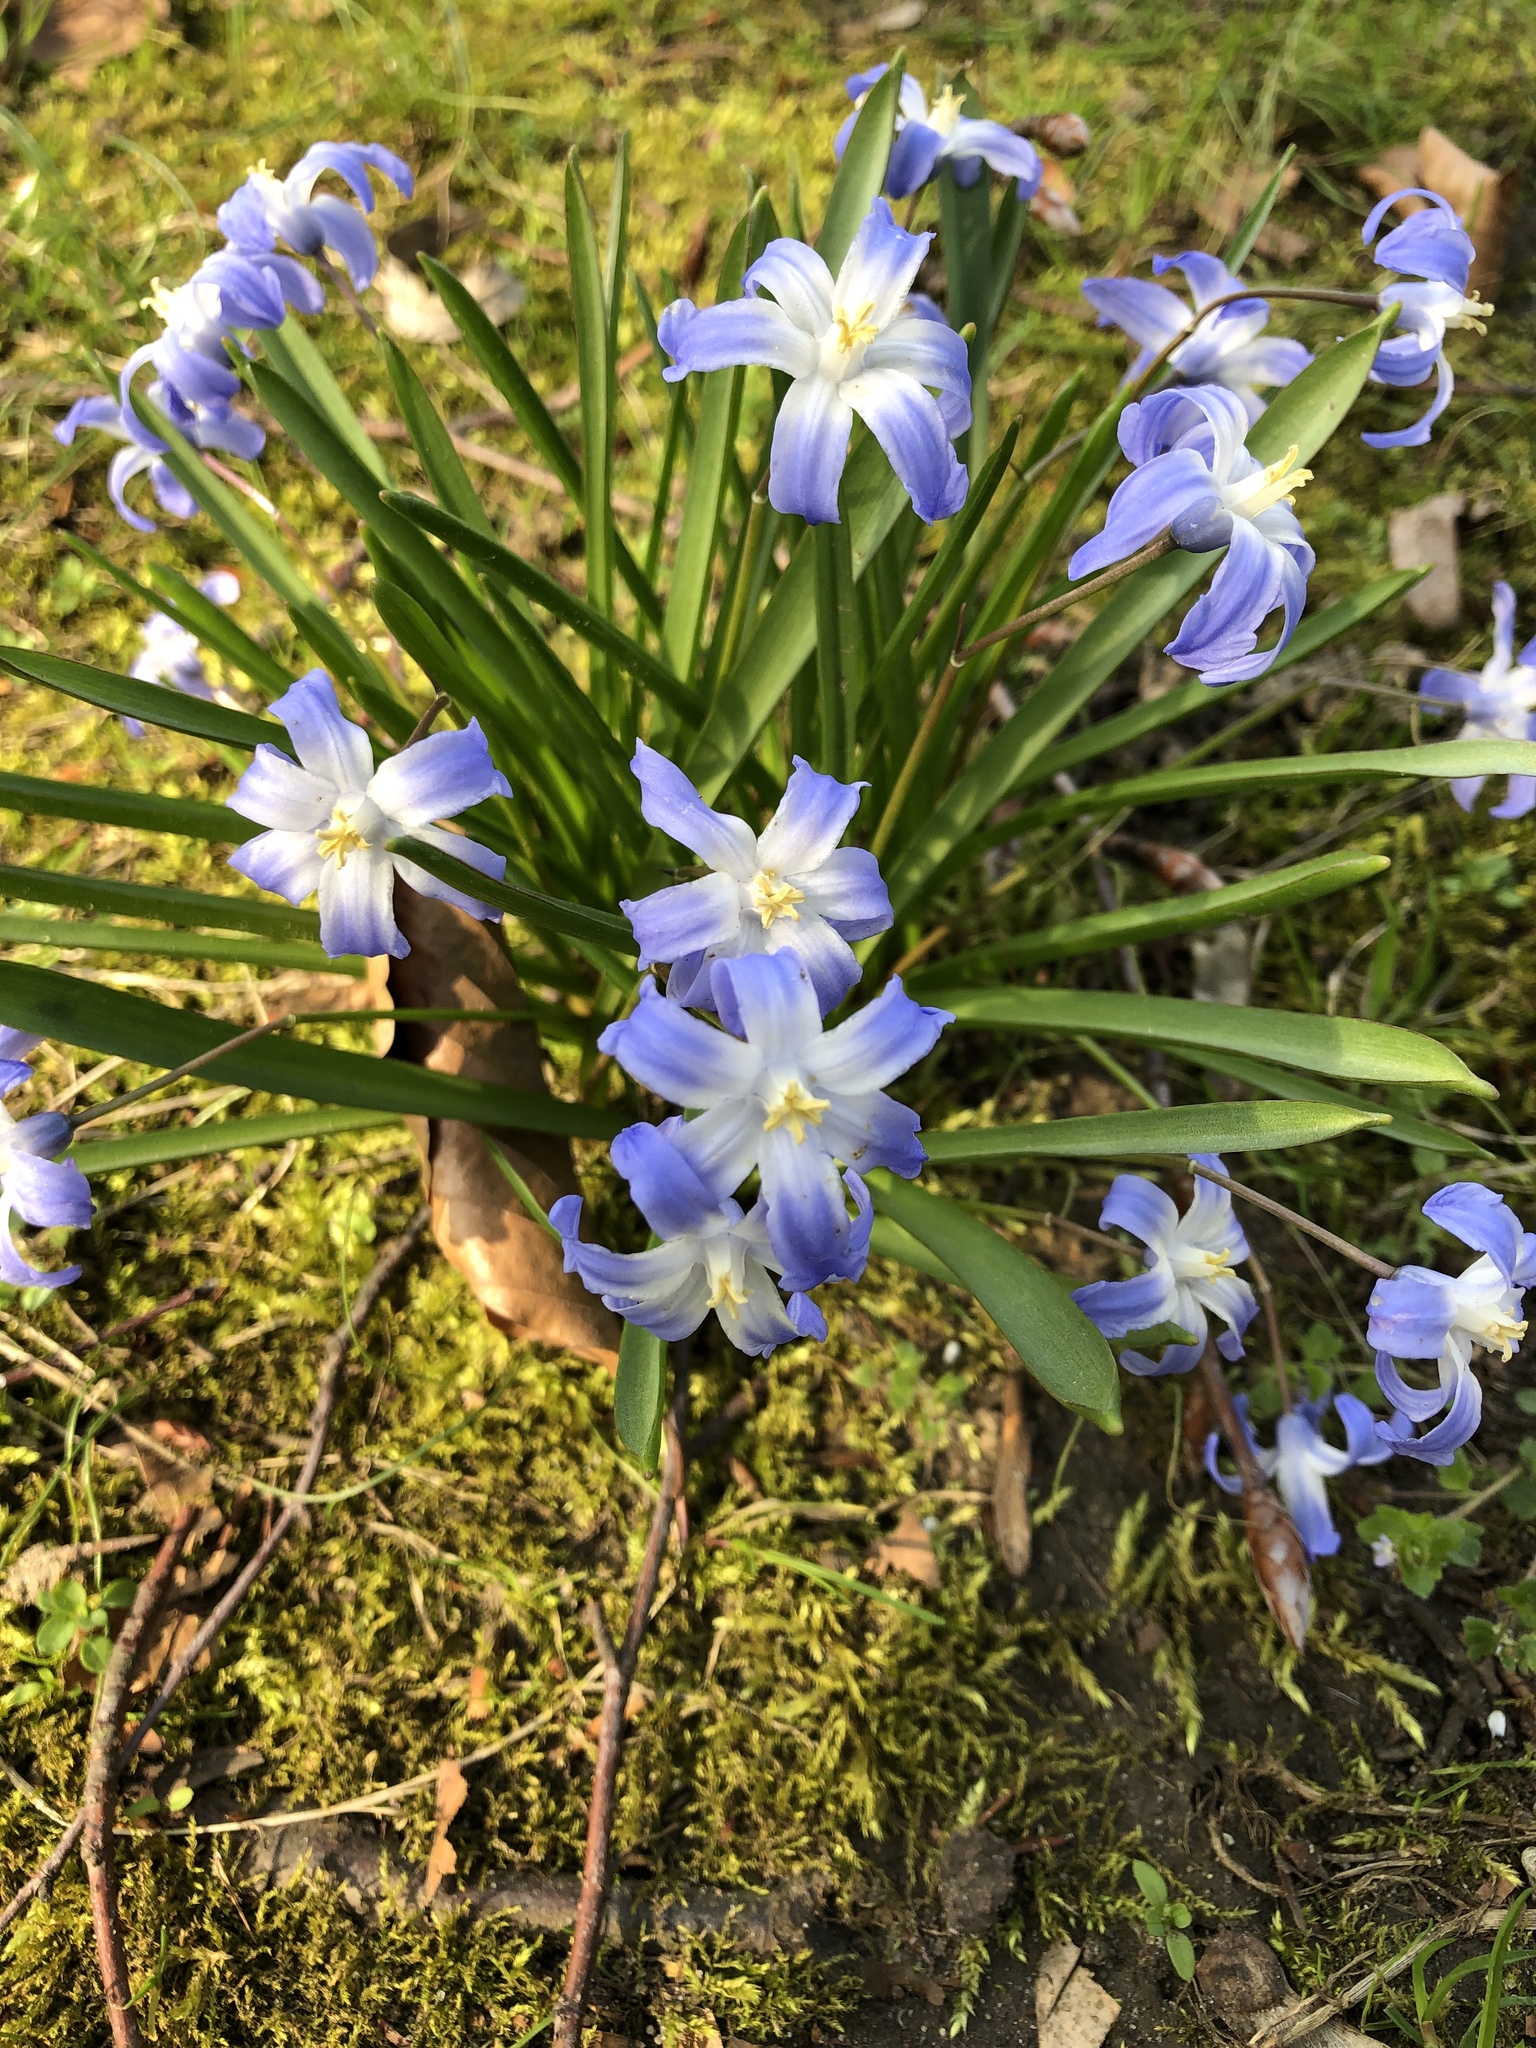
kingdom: Plantae
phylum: Tracheophyta
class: Liliopsida
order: Asparagales
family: Asparagaceae
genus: Scilla
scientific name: Scilla forbesii
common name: Glory-of-the-snow
